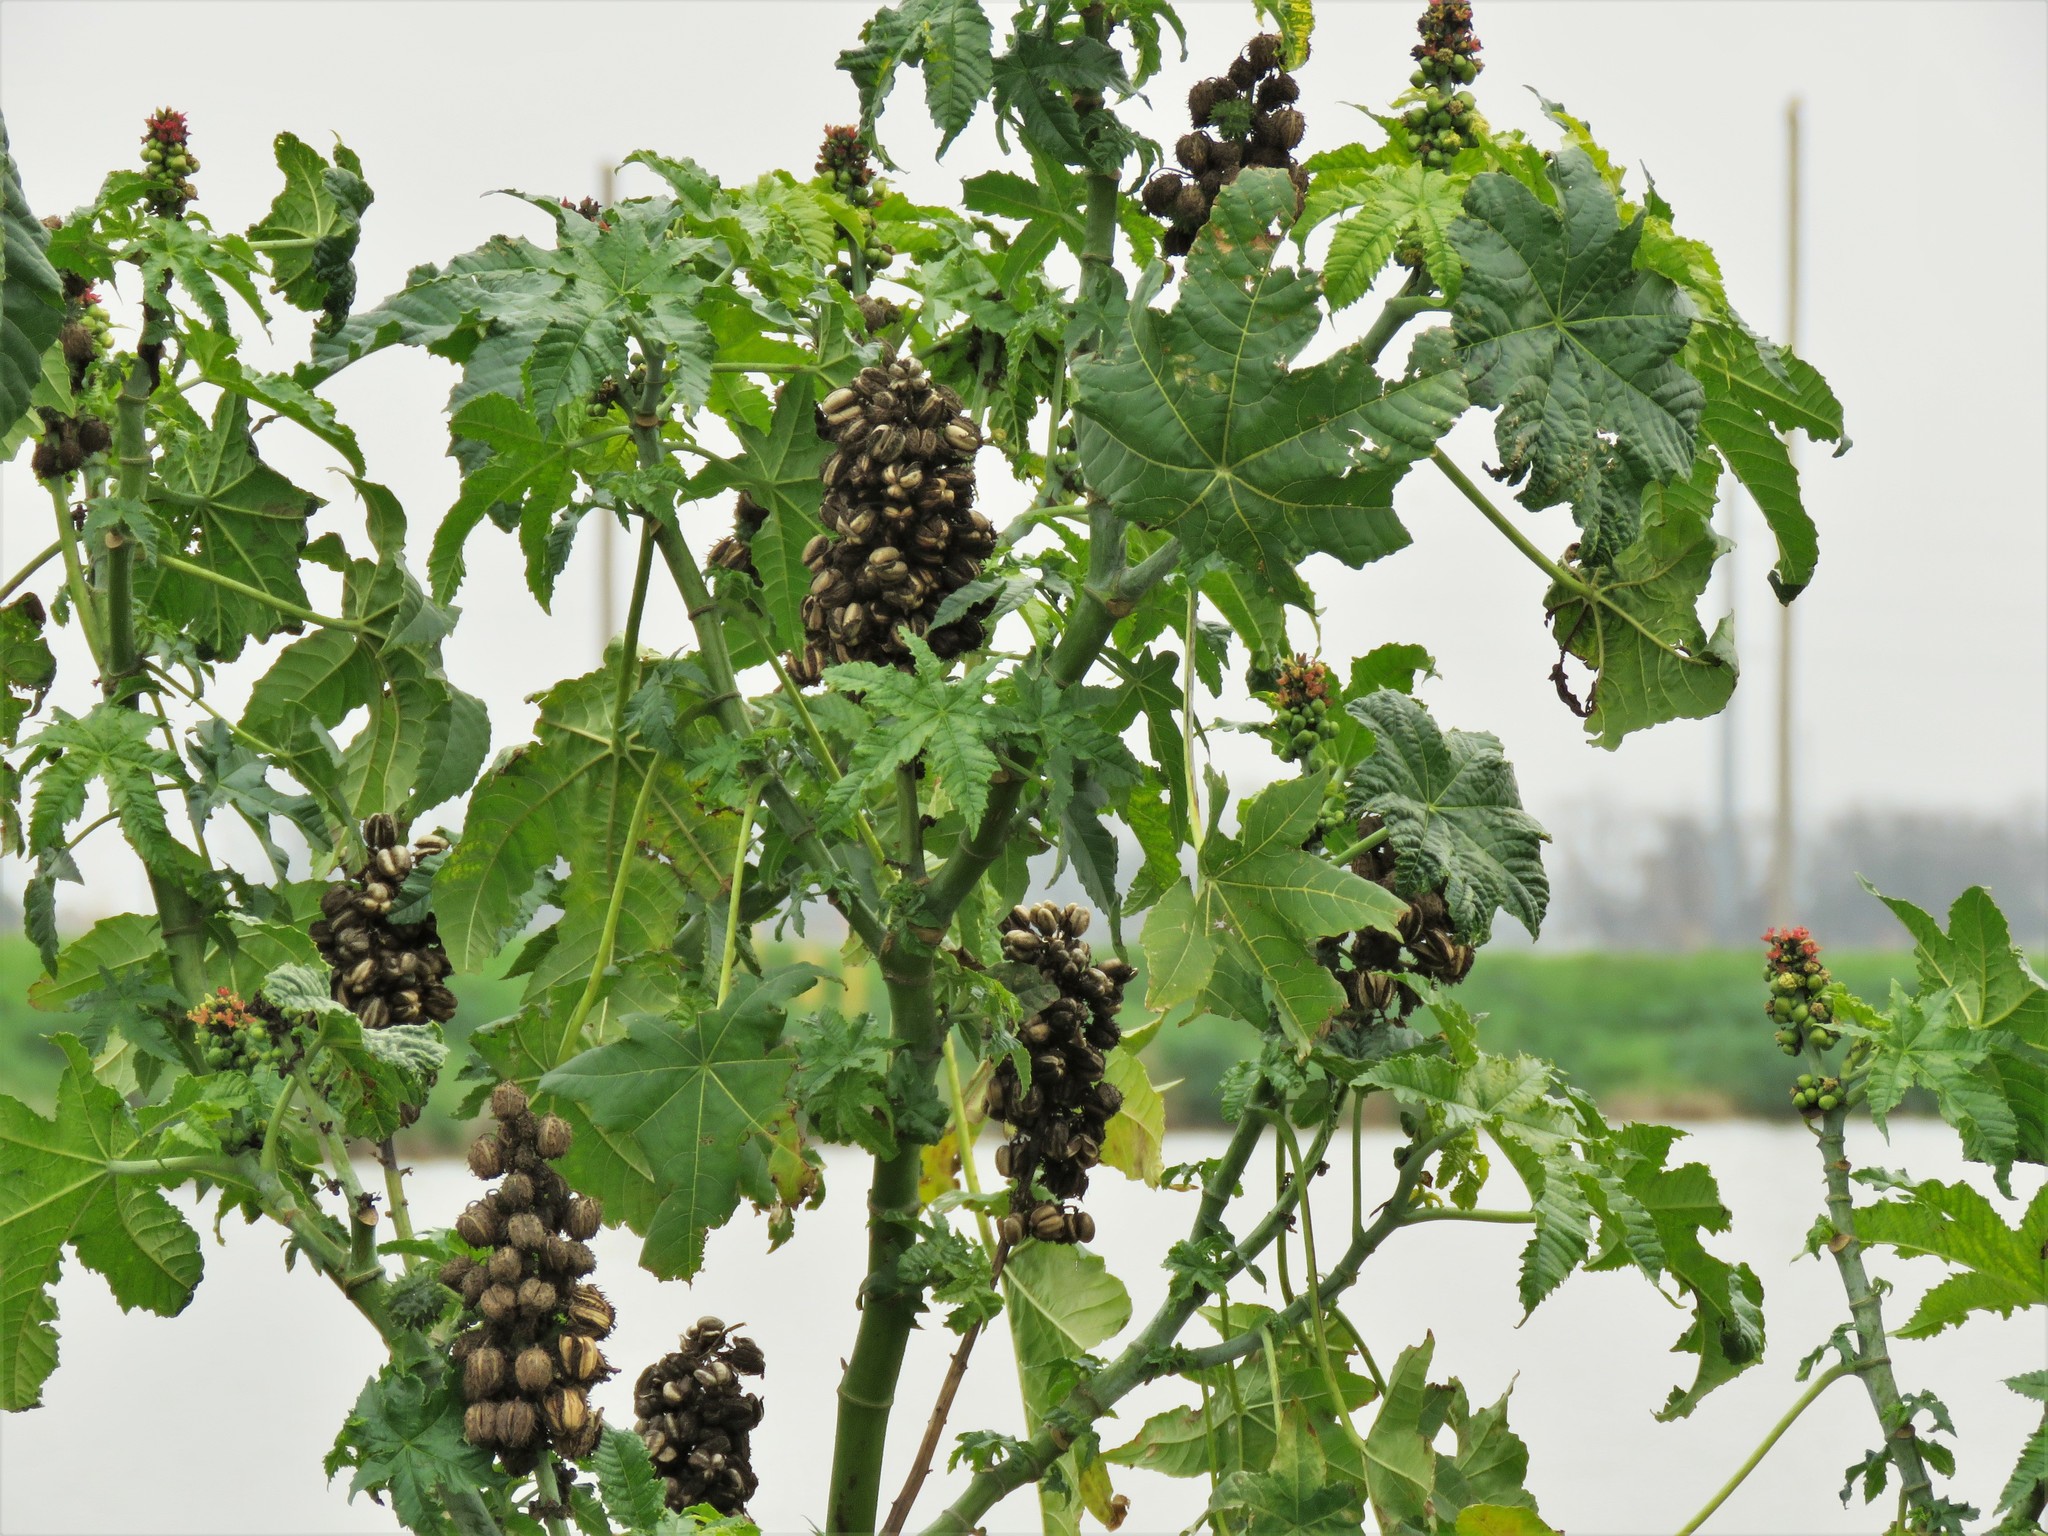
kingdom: Plantae
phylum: Tracheophyta
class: Magnoliopsida
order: Malpighiales
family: Euphorbiaceae
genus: Ricinus
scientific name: Ricinus communis
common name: Castor-oil-plant
